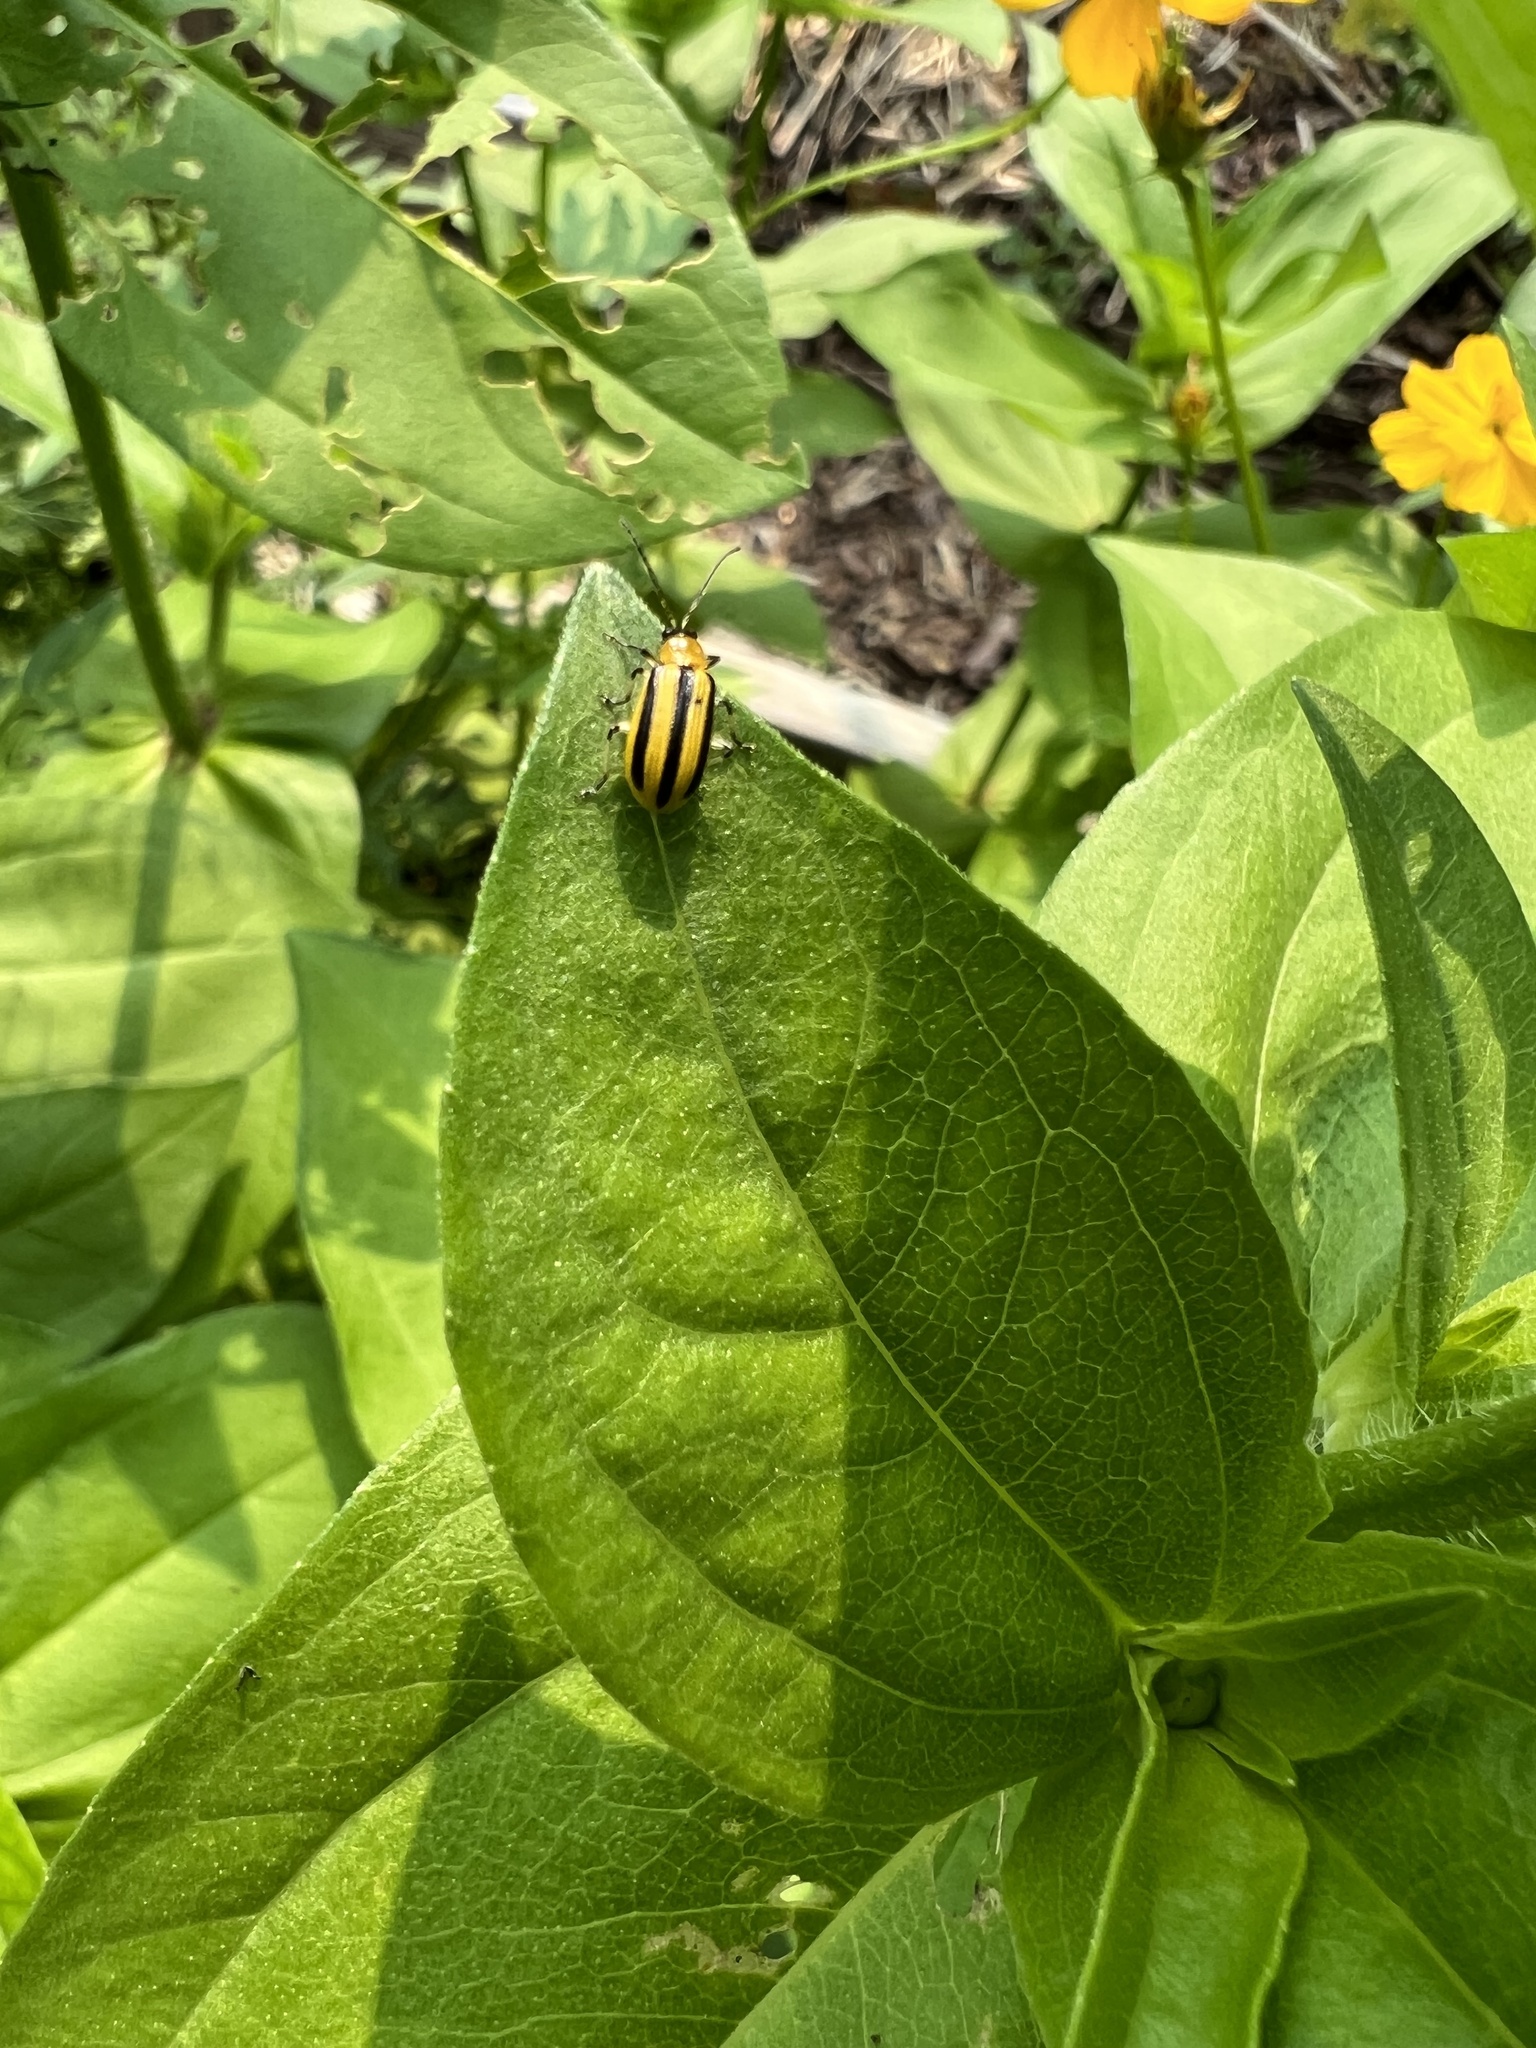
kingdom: Animalia
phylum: Arthropoda
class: Insecta
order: Coleoptera
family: Chrysomelidae
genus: Acalymma
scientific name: Acalymma vittatum
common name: Striped cucumber beetle
